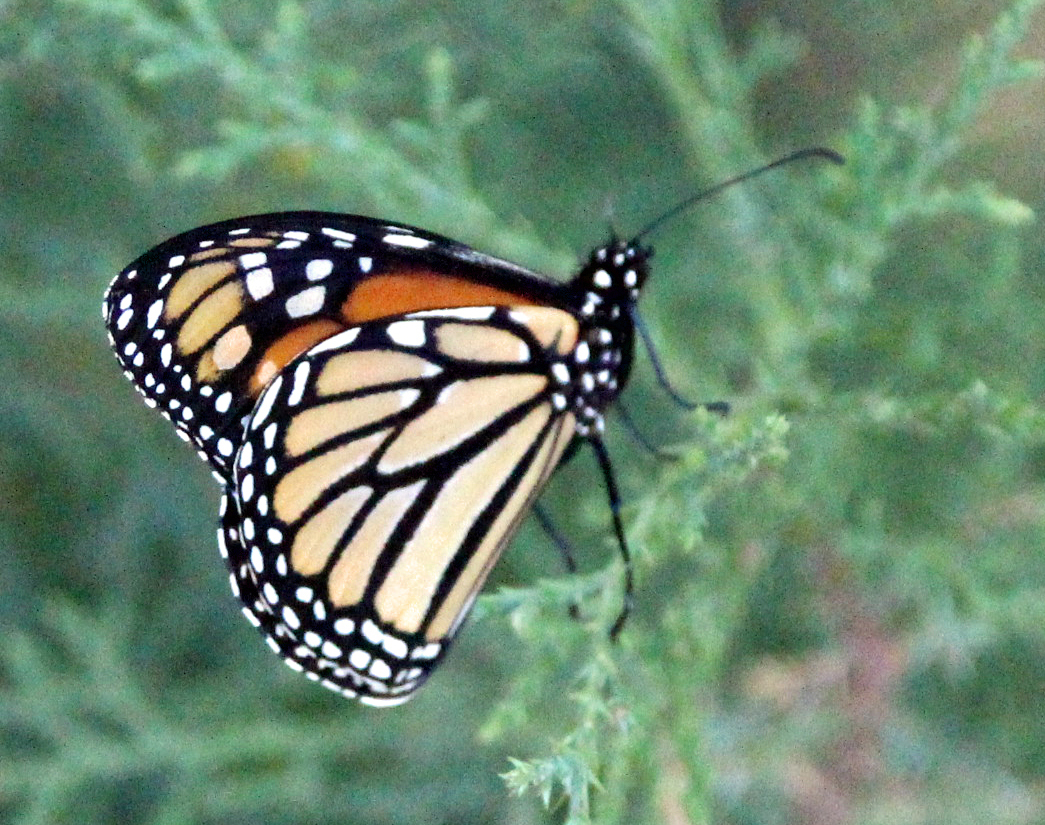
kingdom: Animalia
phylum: Arthropoda
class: Insecta
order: Lepidoptera
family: Nymphalidae
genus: Danaus
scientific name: Danaus plexippus
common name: Monarch
